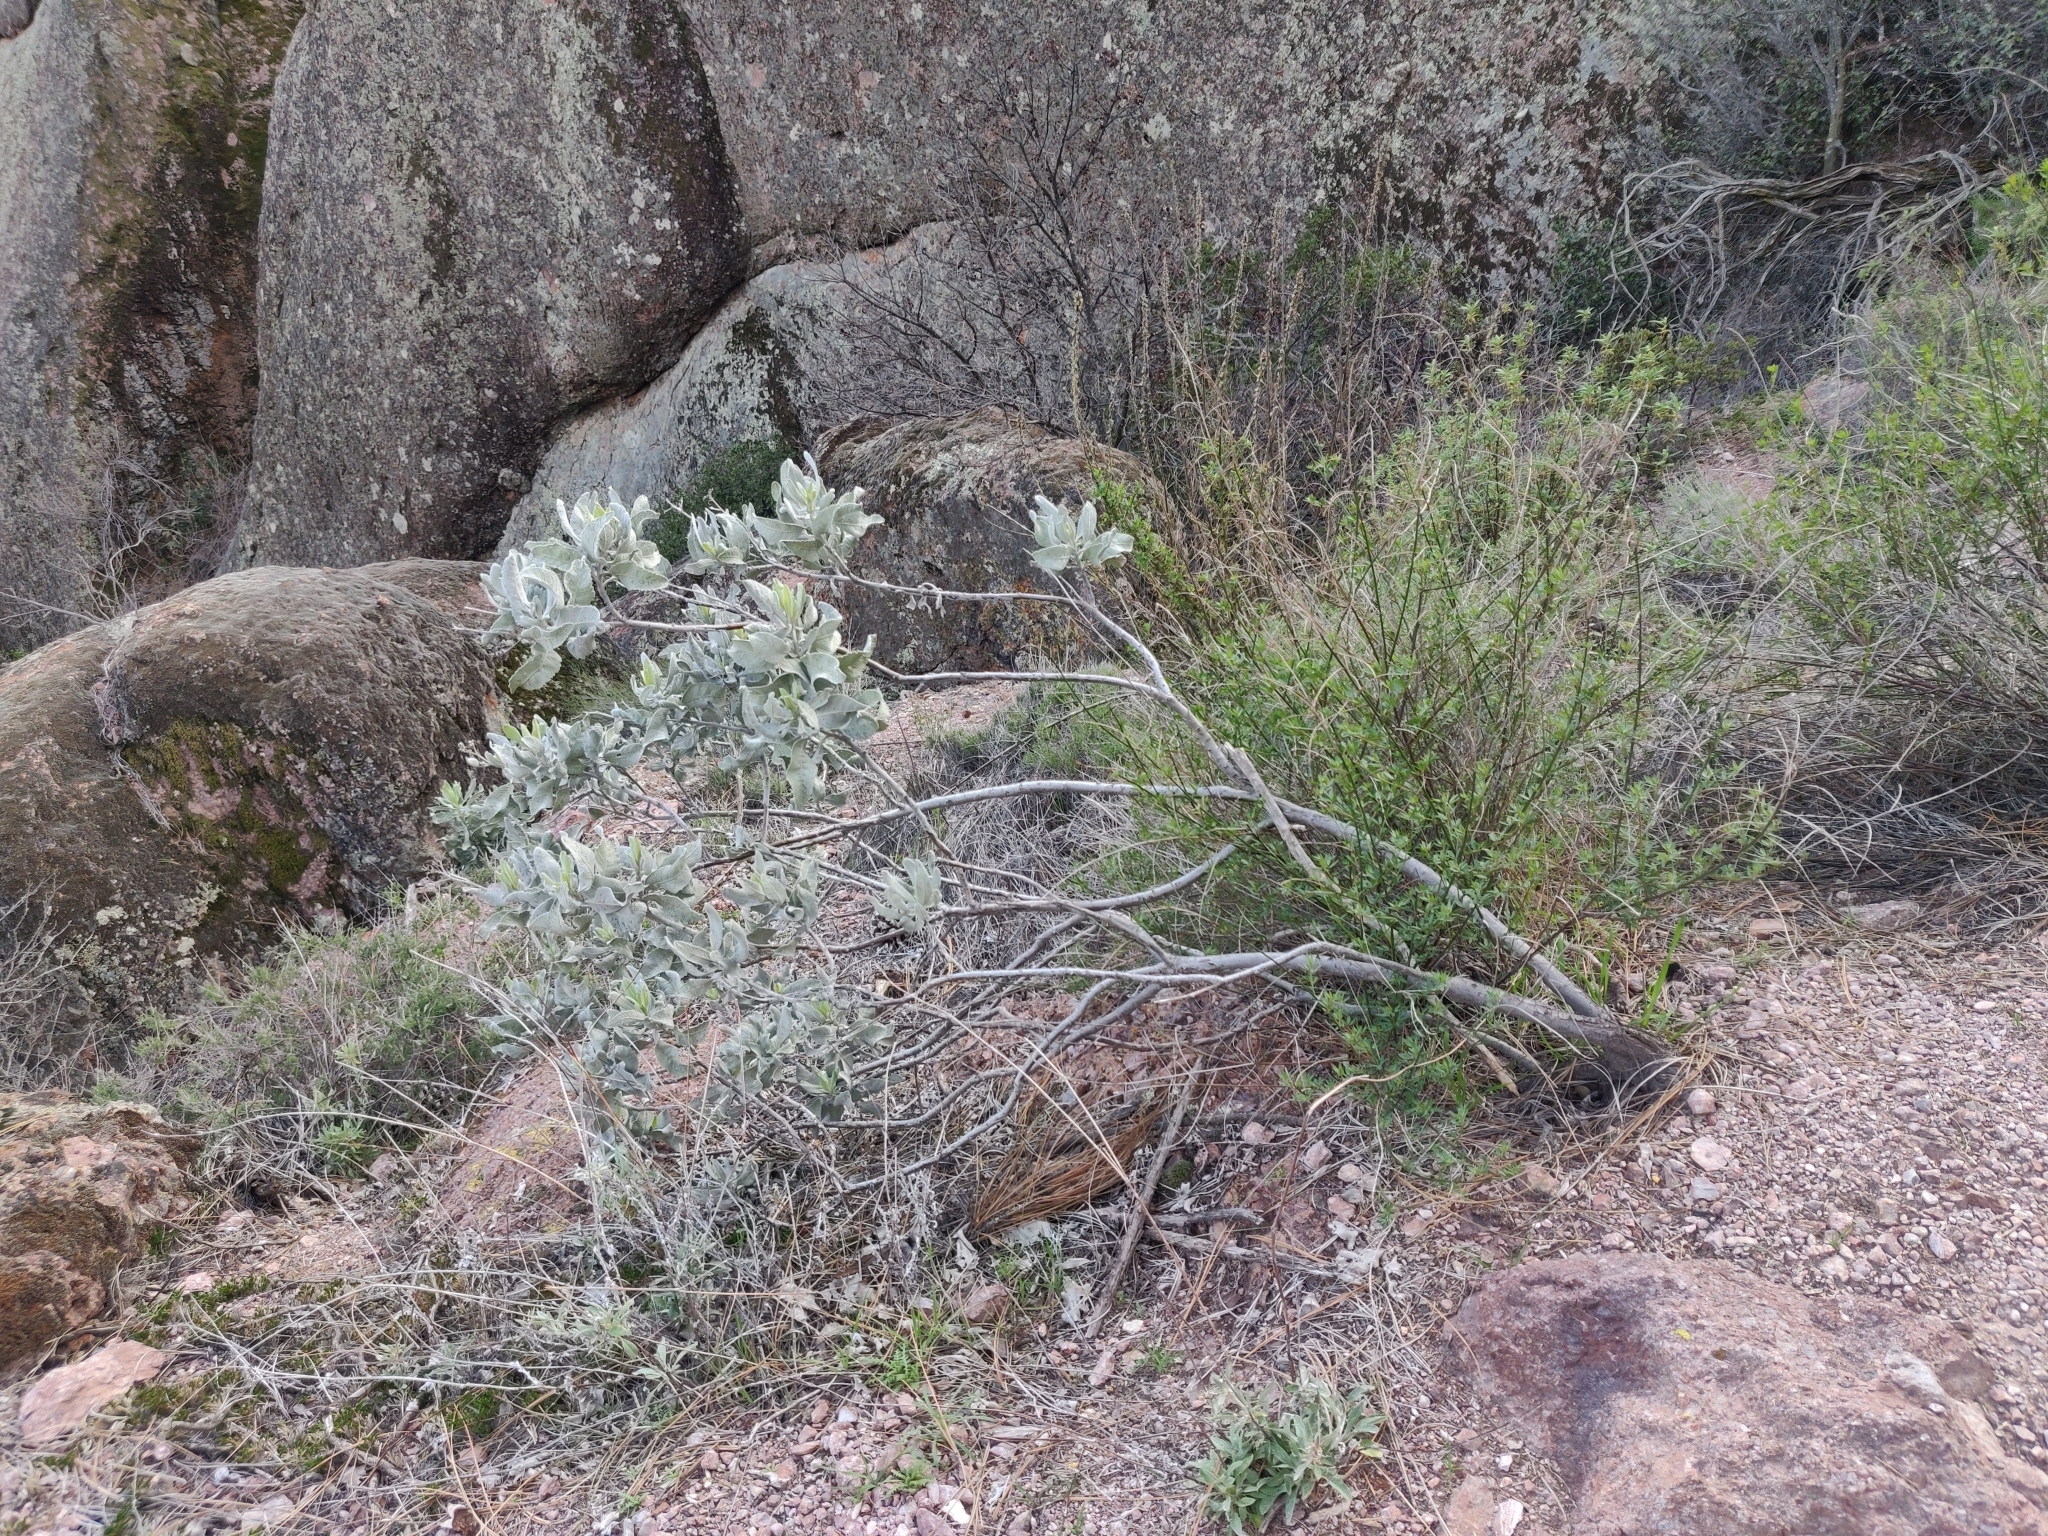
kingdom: Plantae
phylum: Tracheophyta
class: Magnoliopsida
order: Boraginales
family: Namaceae
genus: Eriodictyon
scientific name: Eriodictyon tomentosum
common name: Woolly yerba-santa
